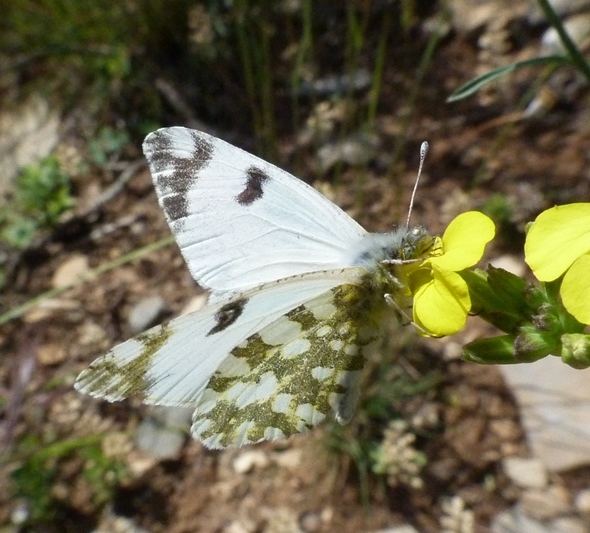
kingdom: Animalia
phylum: Arthropoda
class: Insecta
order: Lepidoptera
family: Pieridae
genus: Euchloe
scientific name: Euchloe crameri
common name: Western dappled white
